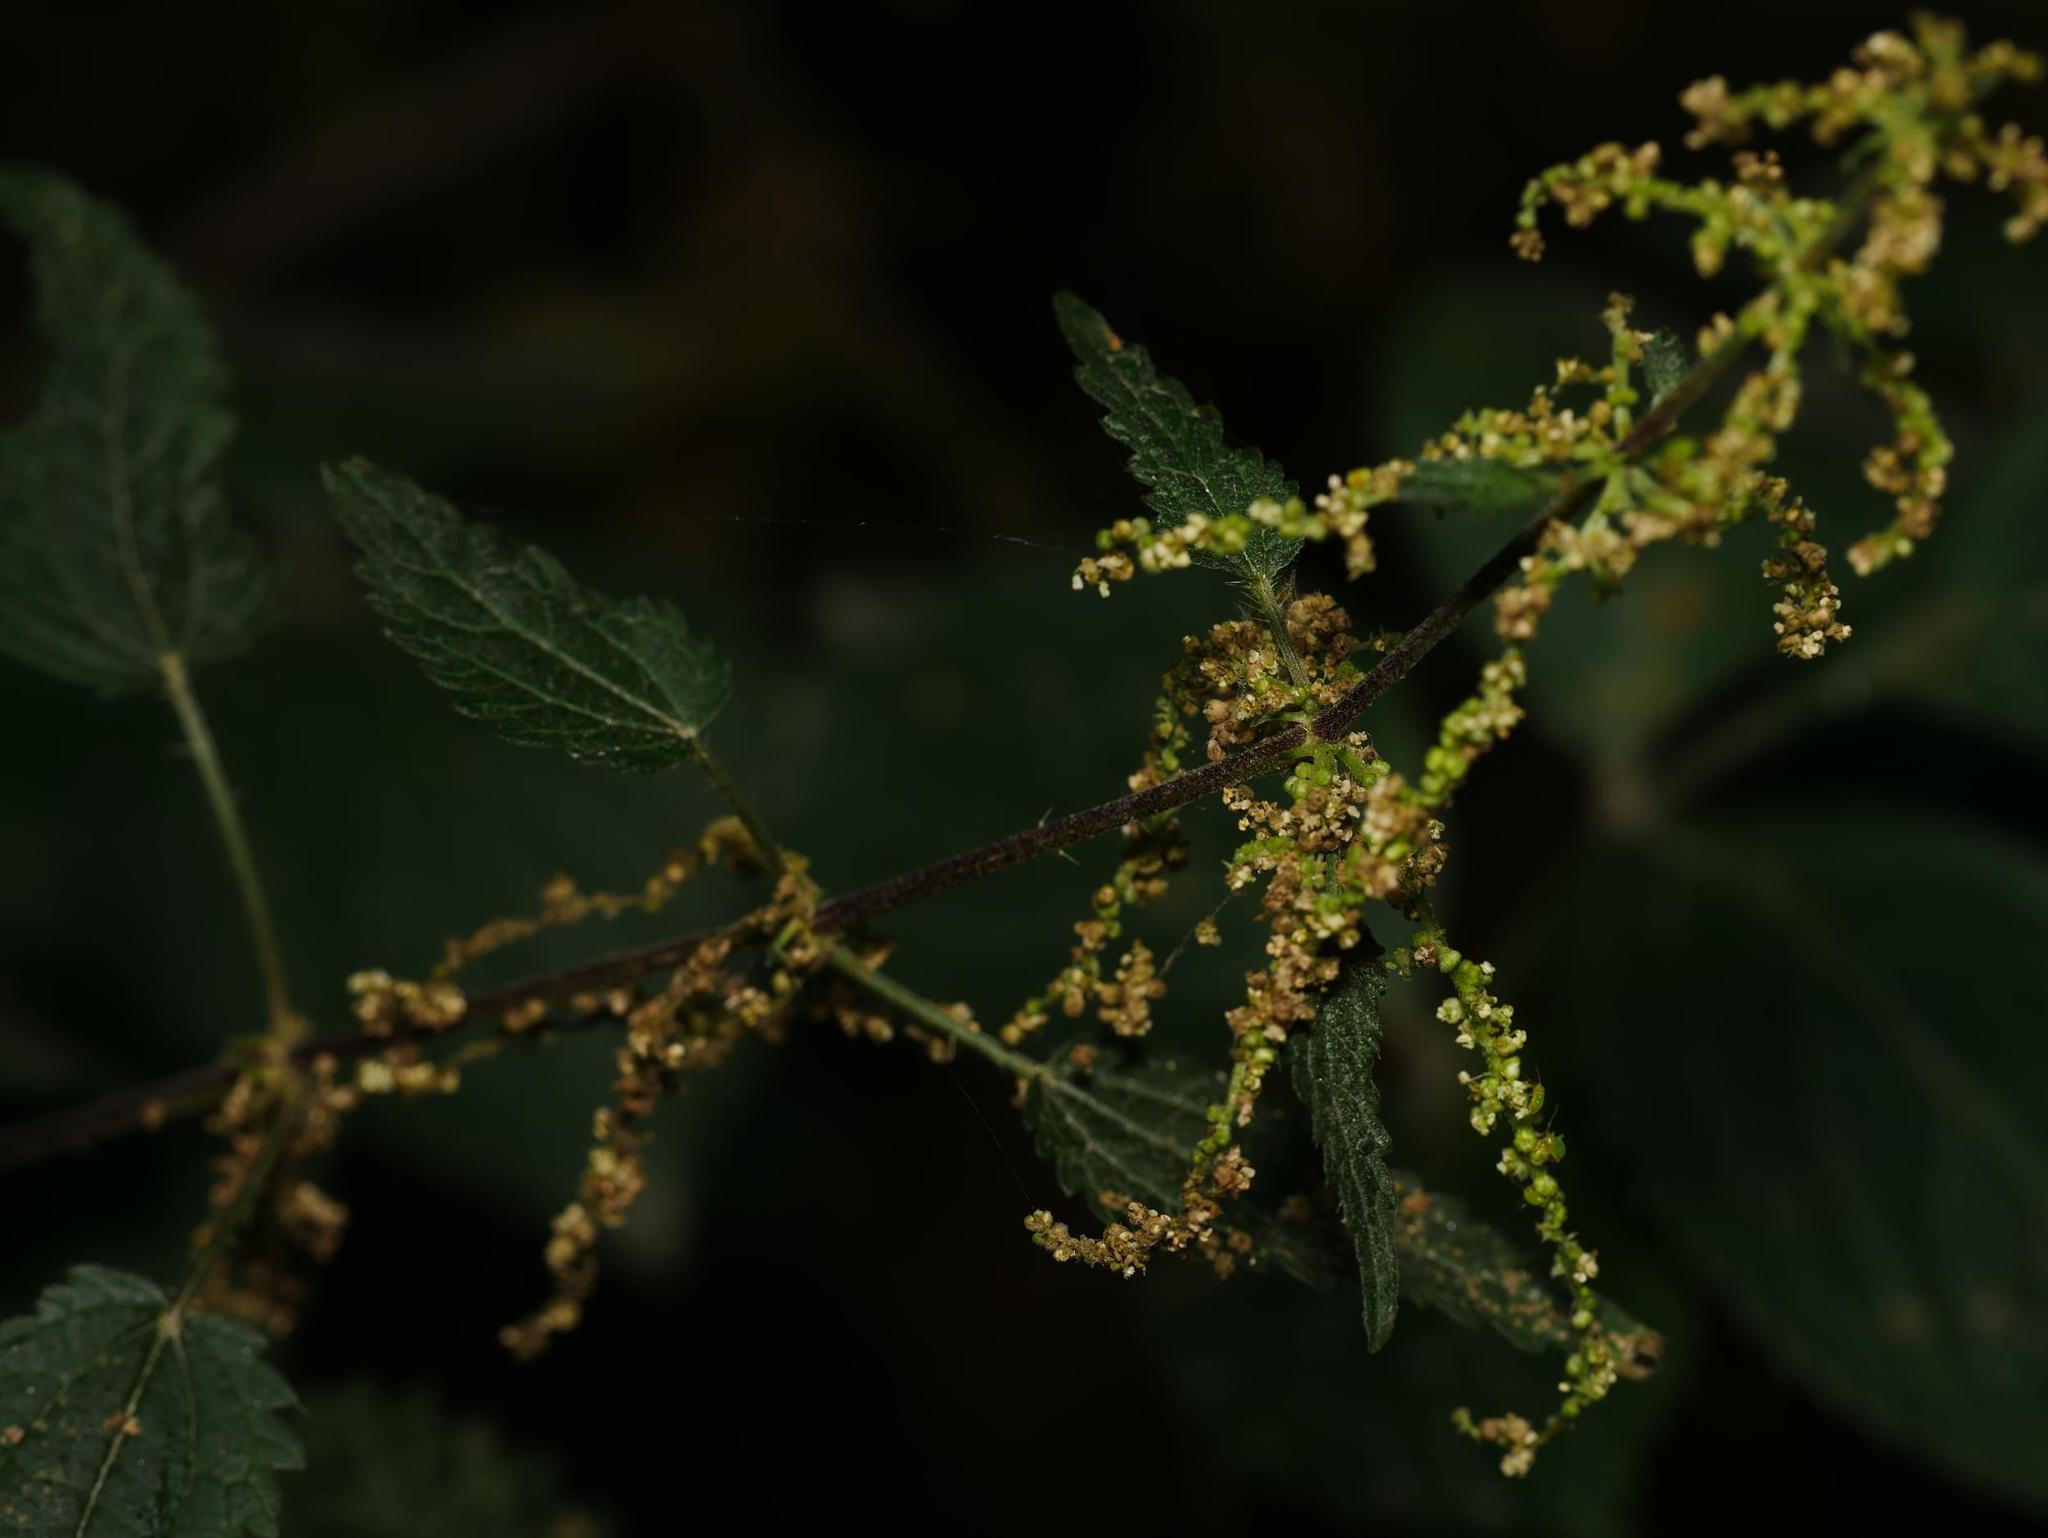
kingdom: Plantae
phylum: Tracheophyta
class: Magnoliopsida
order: Rosales
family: Urticaceae
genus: Urtica
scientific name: Urtica dioica
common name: Common nettle
